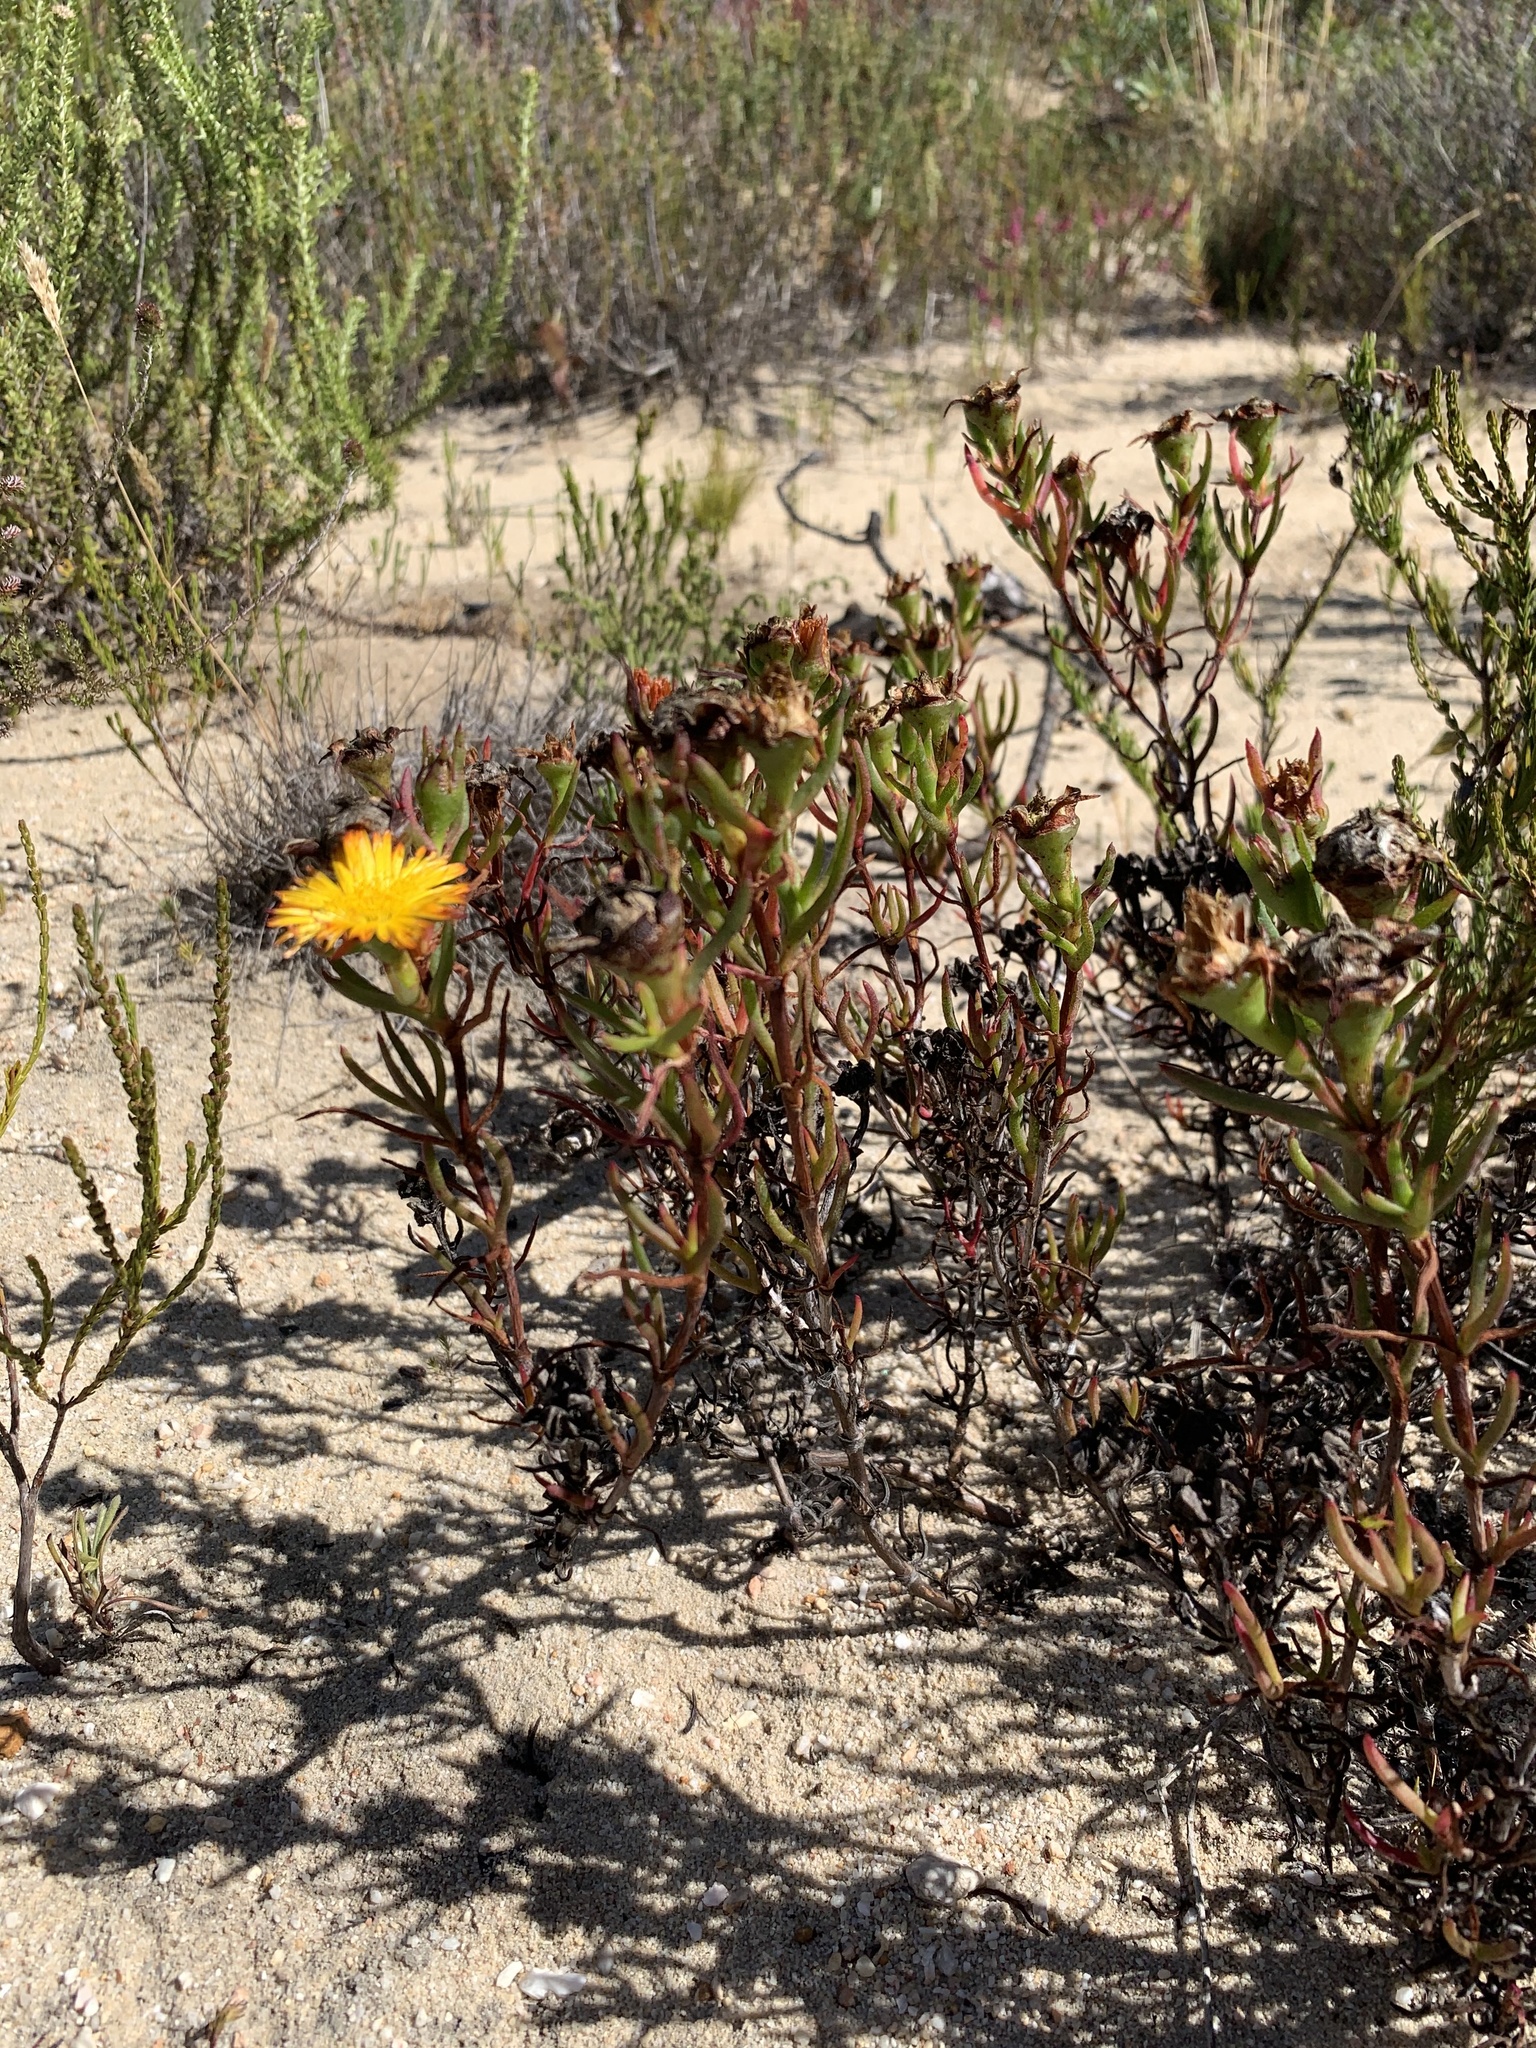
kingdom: Plantae
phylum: Tracheophyta
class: Magnoliopsida
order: Caryophyllales
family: Aizoaceae
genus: Lampranthus
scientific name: Lampranthus bicolor
